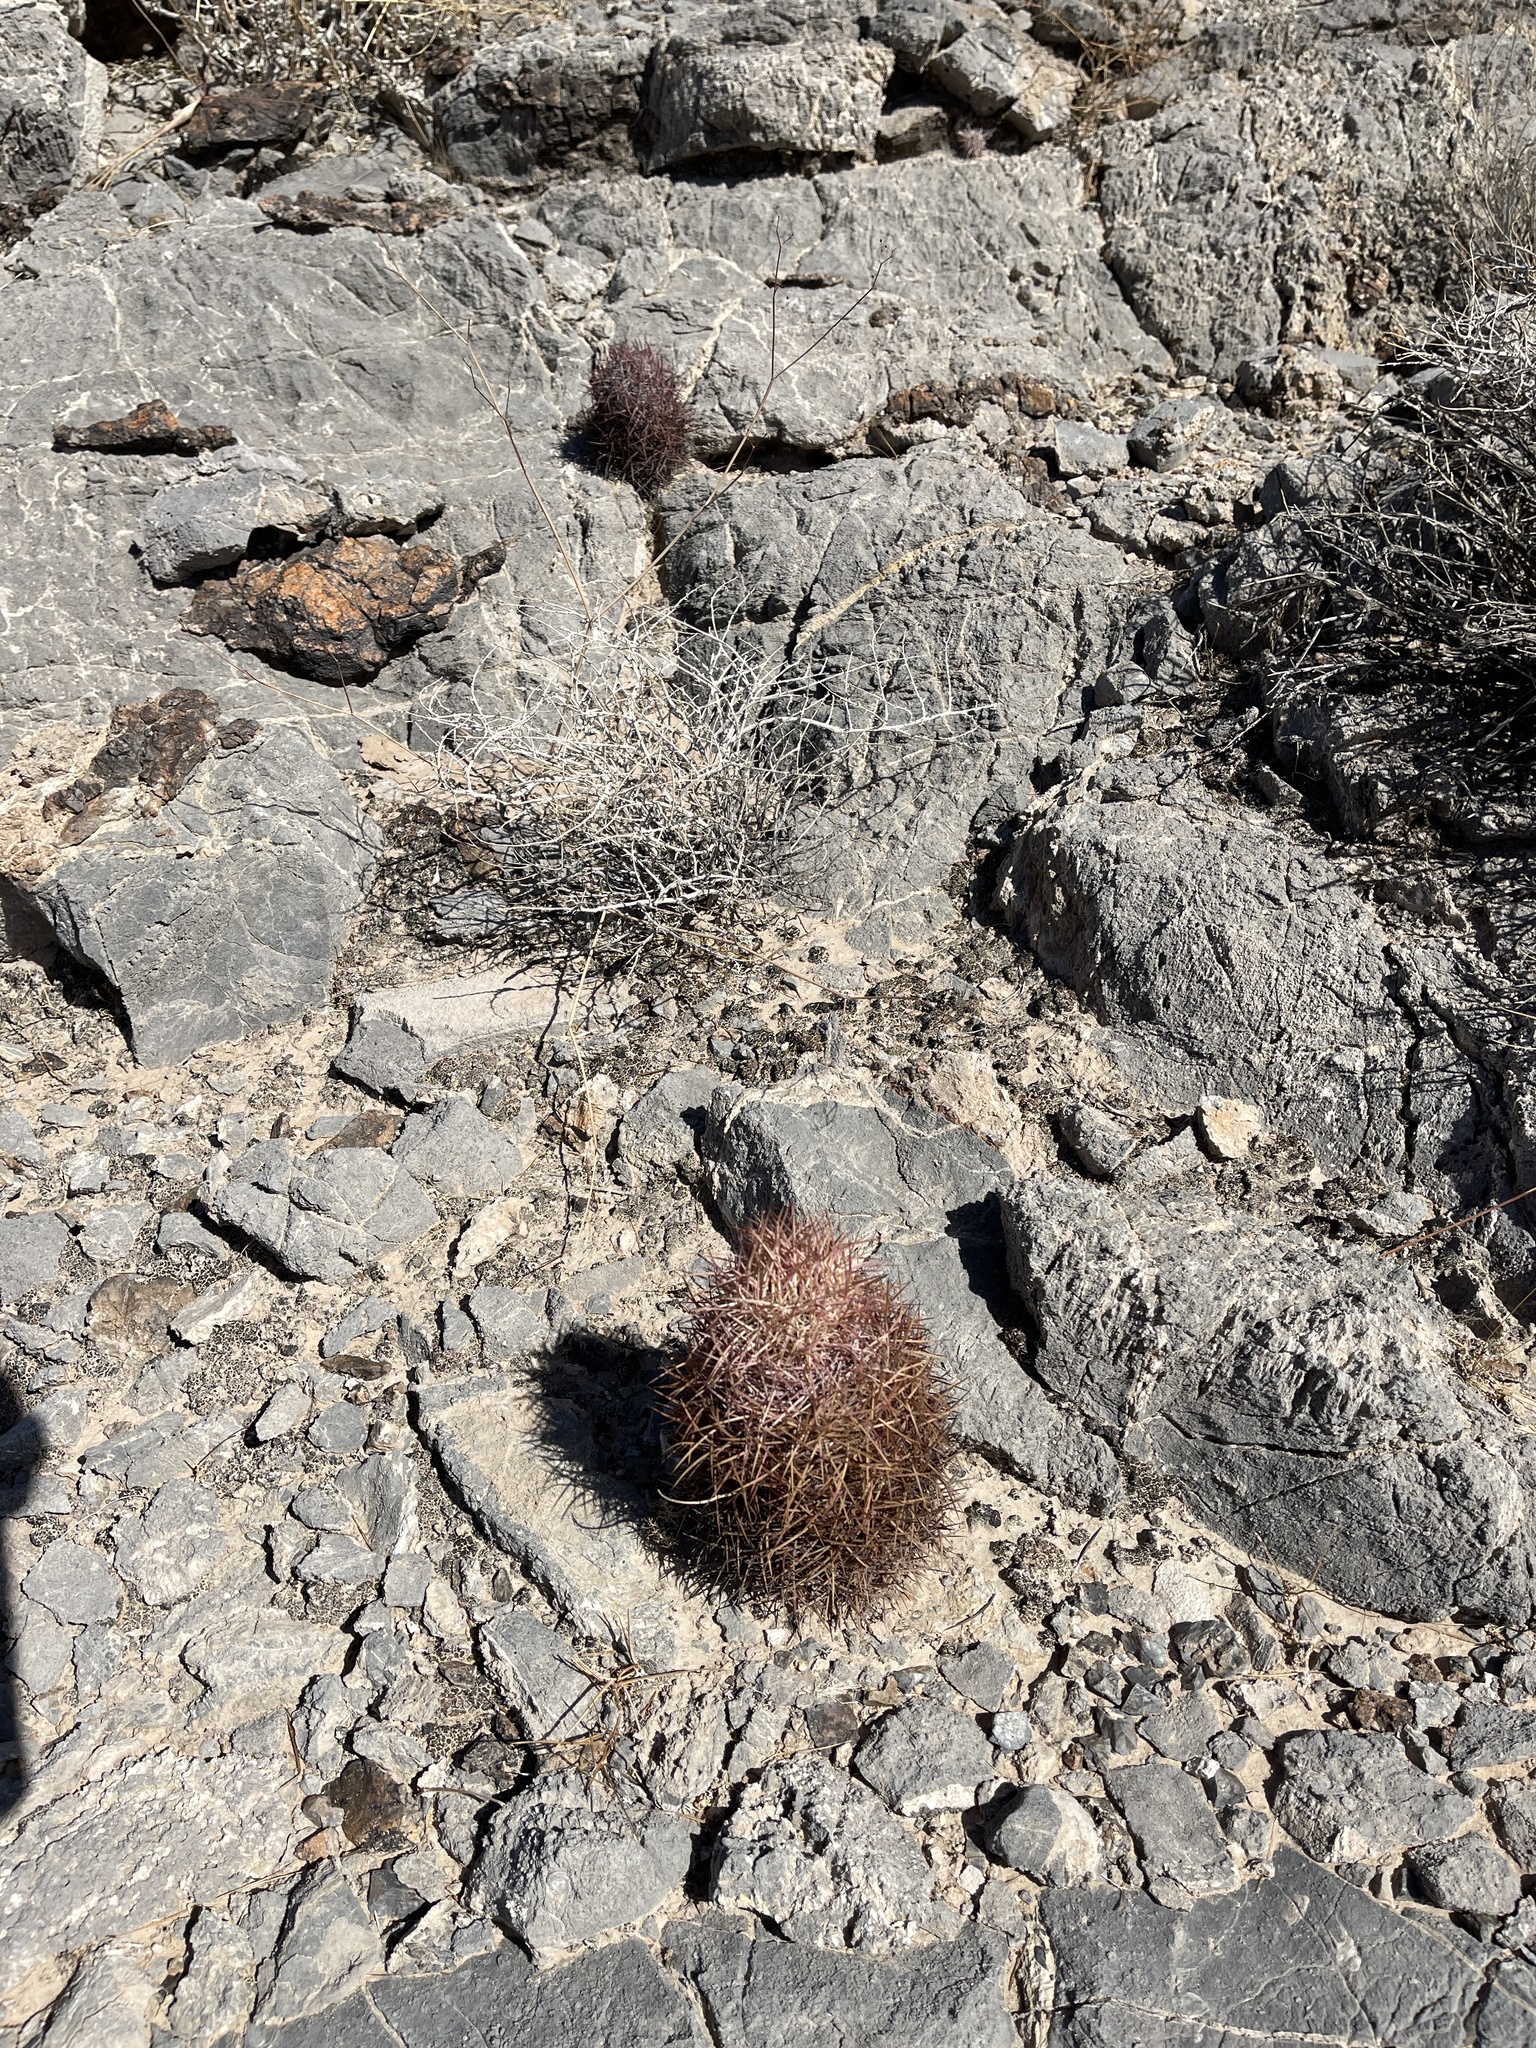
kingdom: Plantae
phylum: Tracheophyta
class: Magnoliopsida
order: Caryophyllales
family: Cactaceae
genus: Sclerocactus
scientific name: Sclerocactus johnsonii
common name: Eight-spine fishhook cactus
